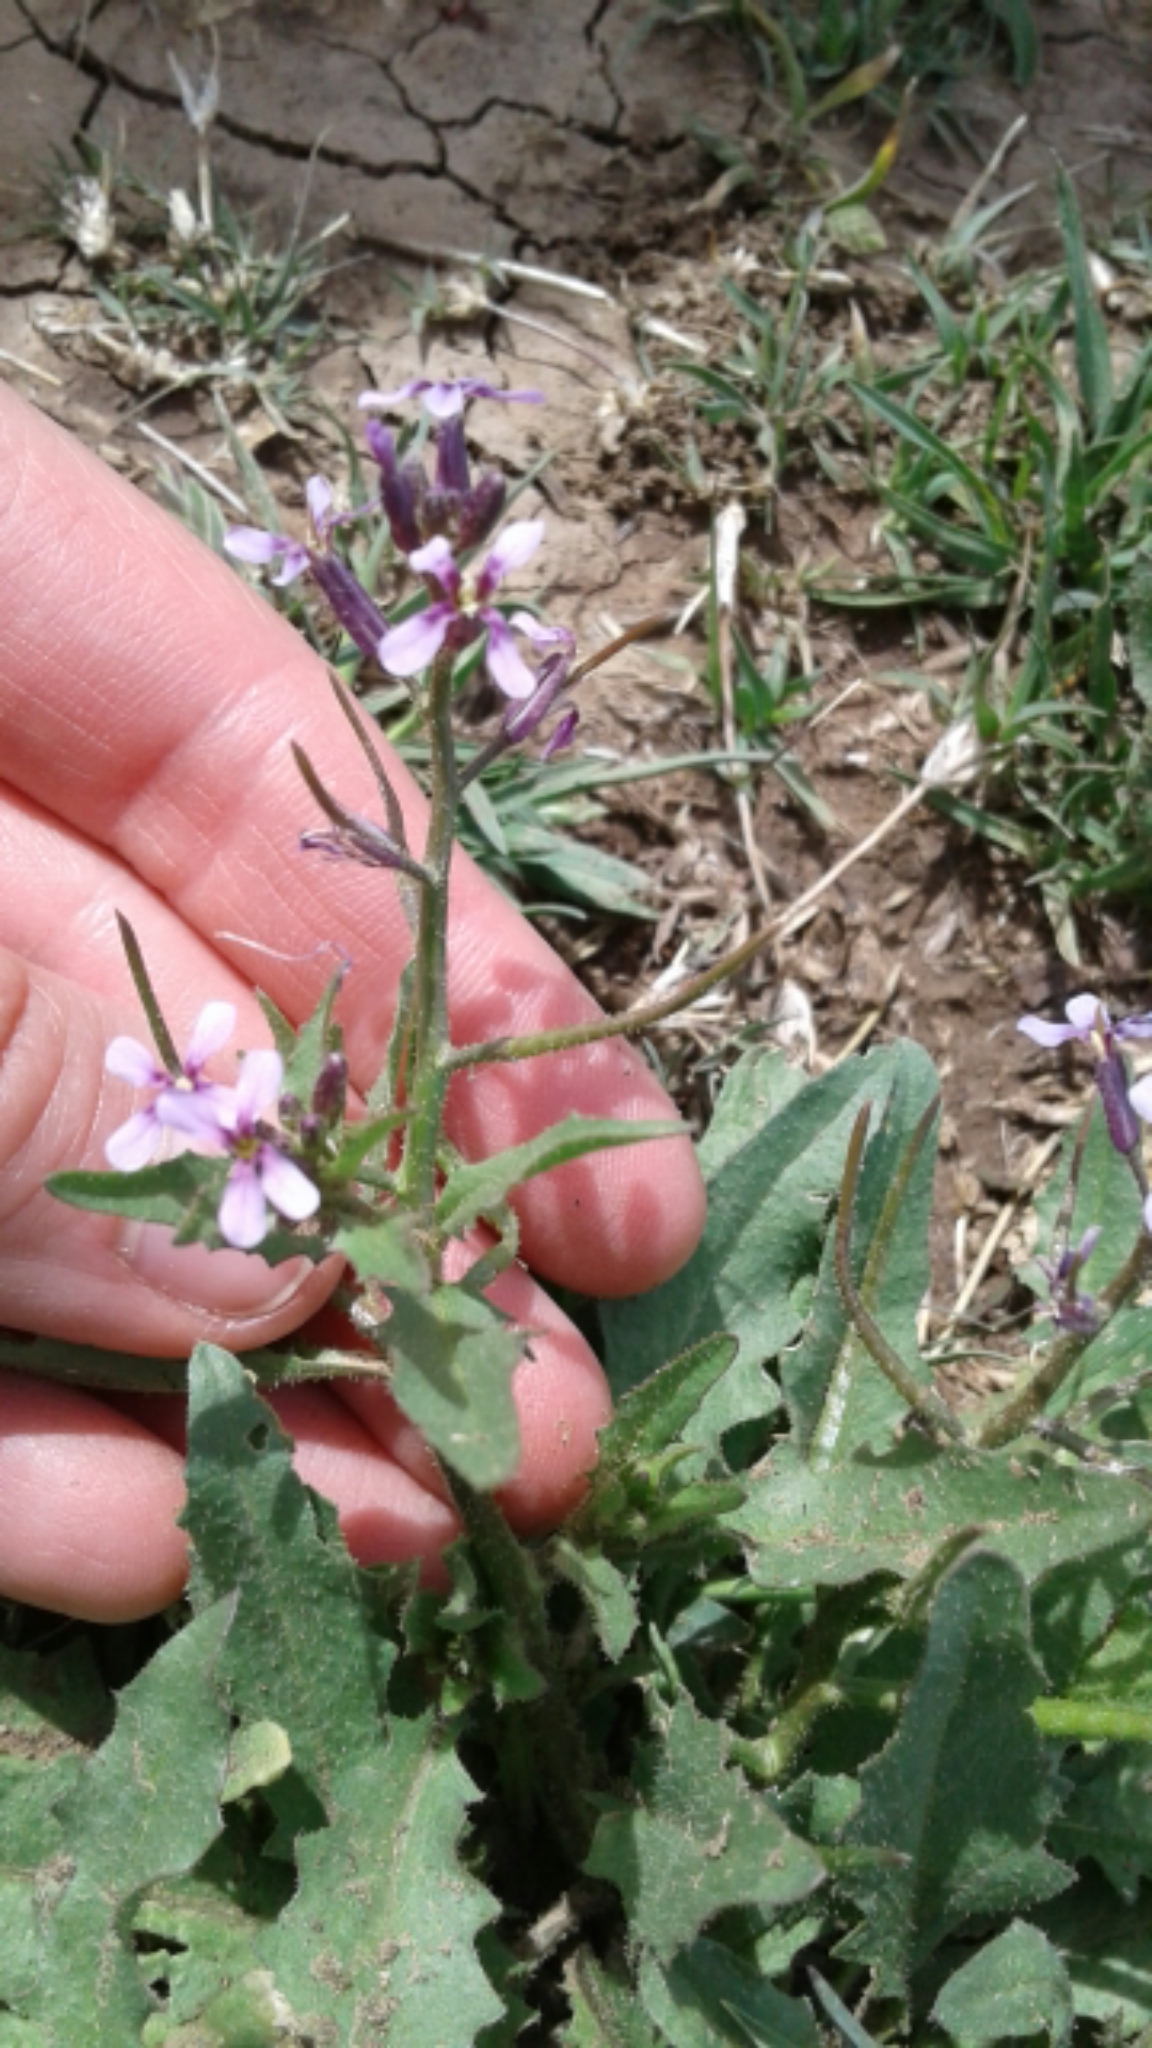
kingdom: Plantae
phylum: Tracheophyta
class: Magnoliopsida
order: Brassicales
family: Brassicaceae
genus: Chorispora
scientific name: Chorispora tenella
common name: Crossflower
